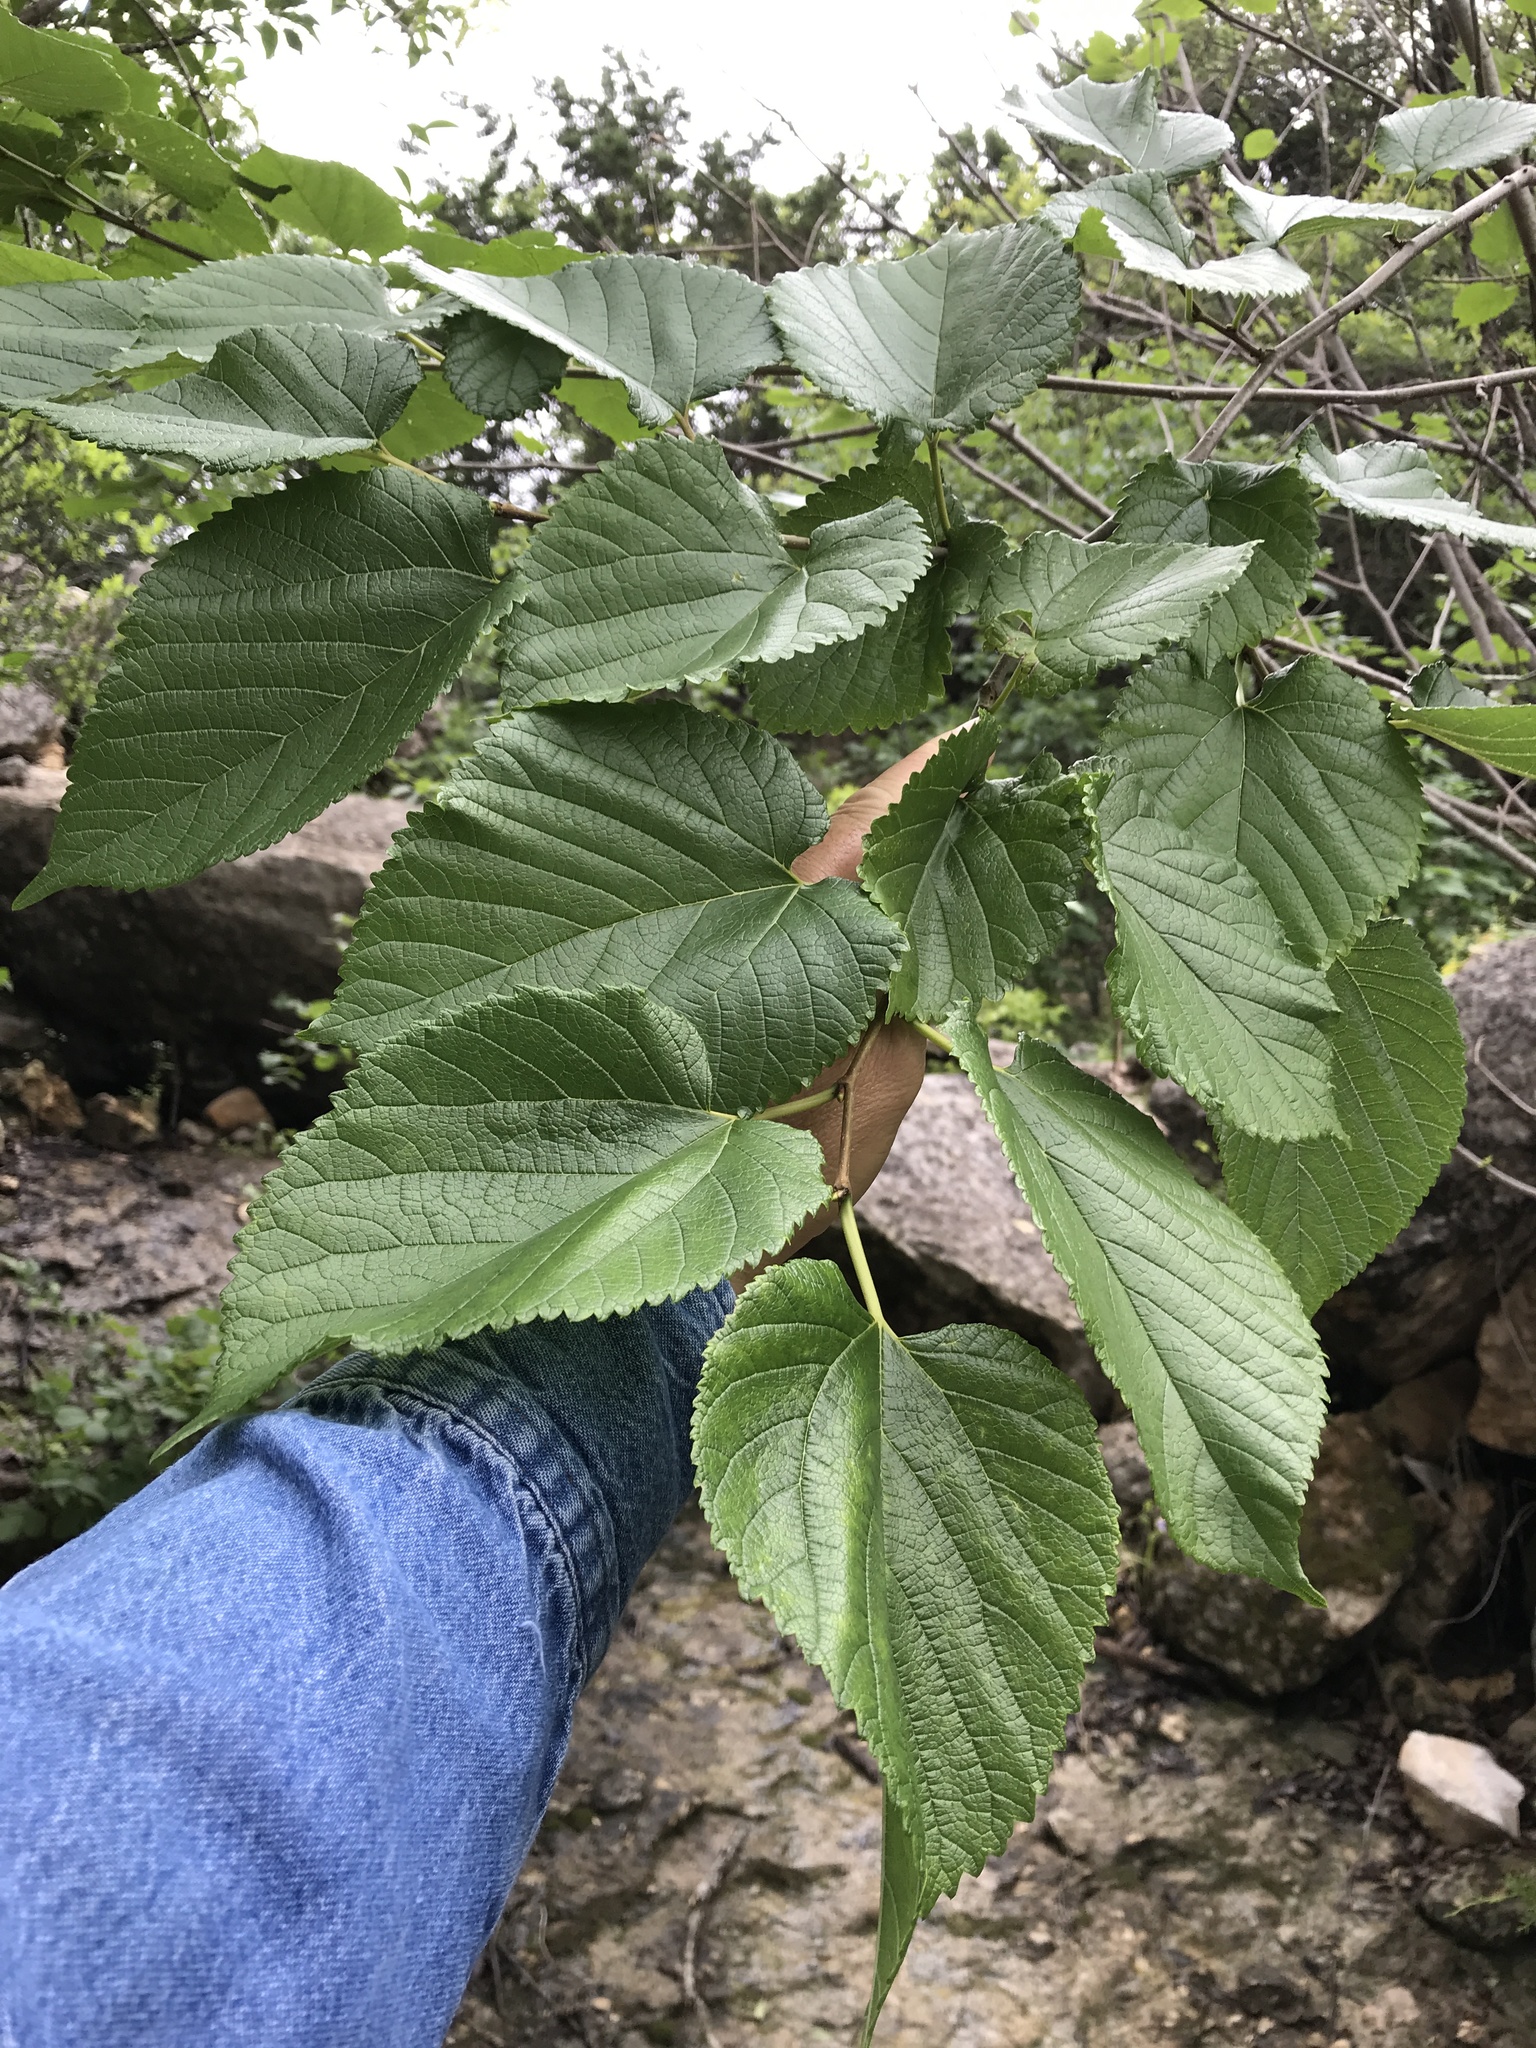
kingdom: Plantae
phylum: Tracheophyta
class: Magnoliopsida
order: Rosales
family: Moraceae
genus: Morus
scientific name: Morus rubra
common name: Red mulberry
